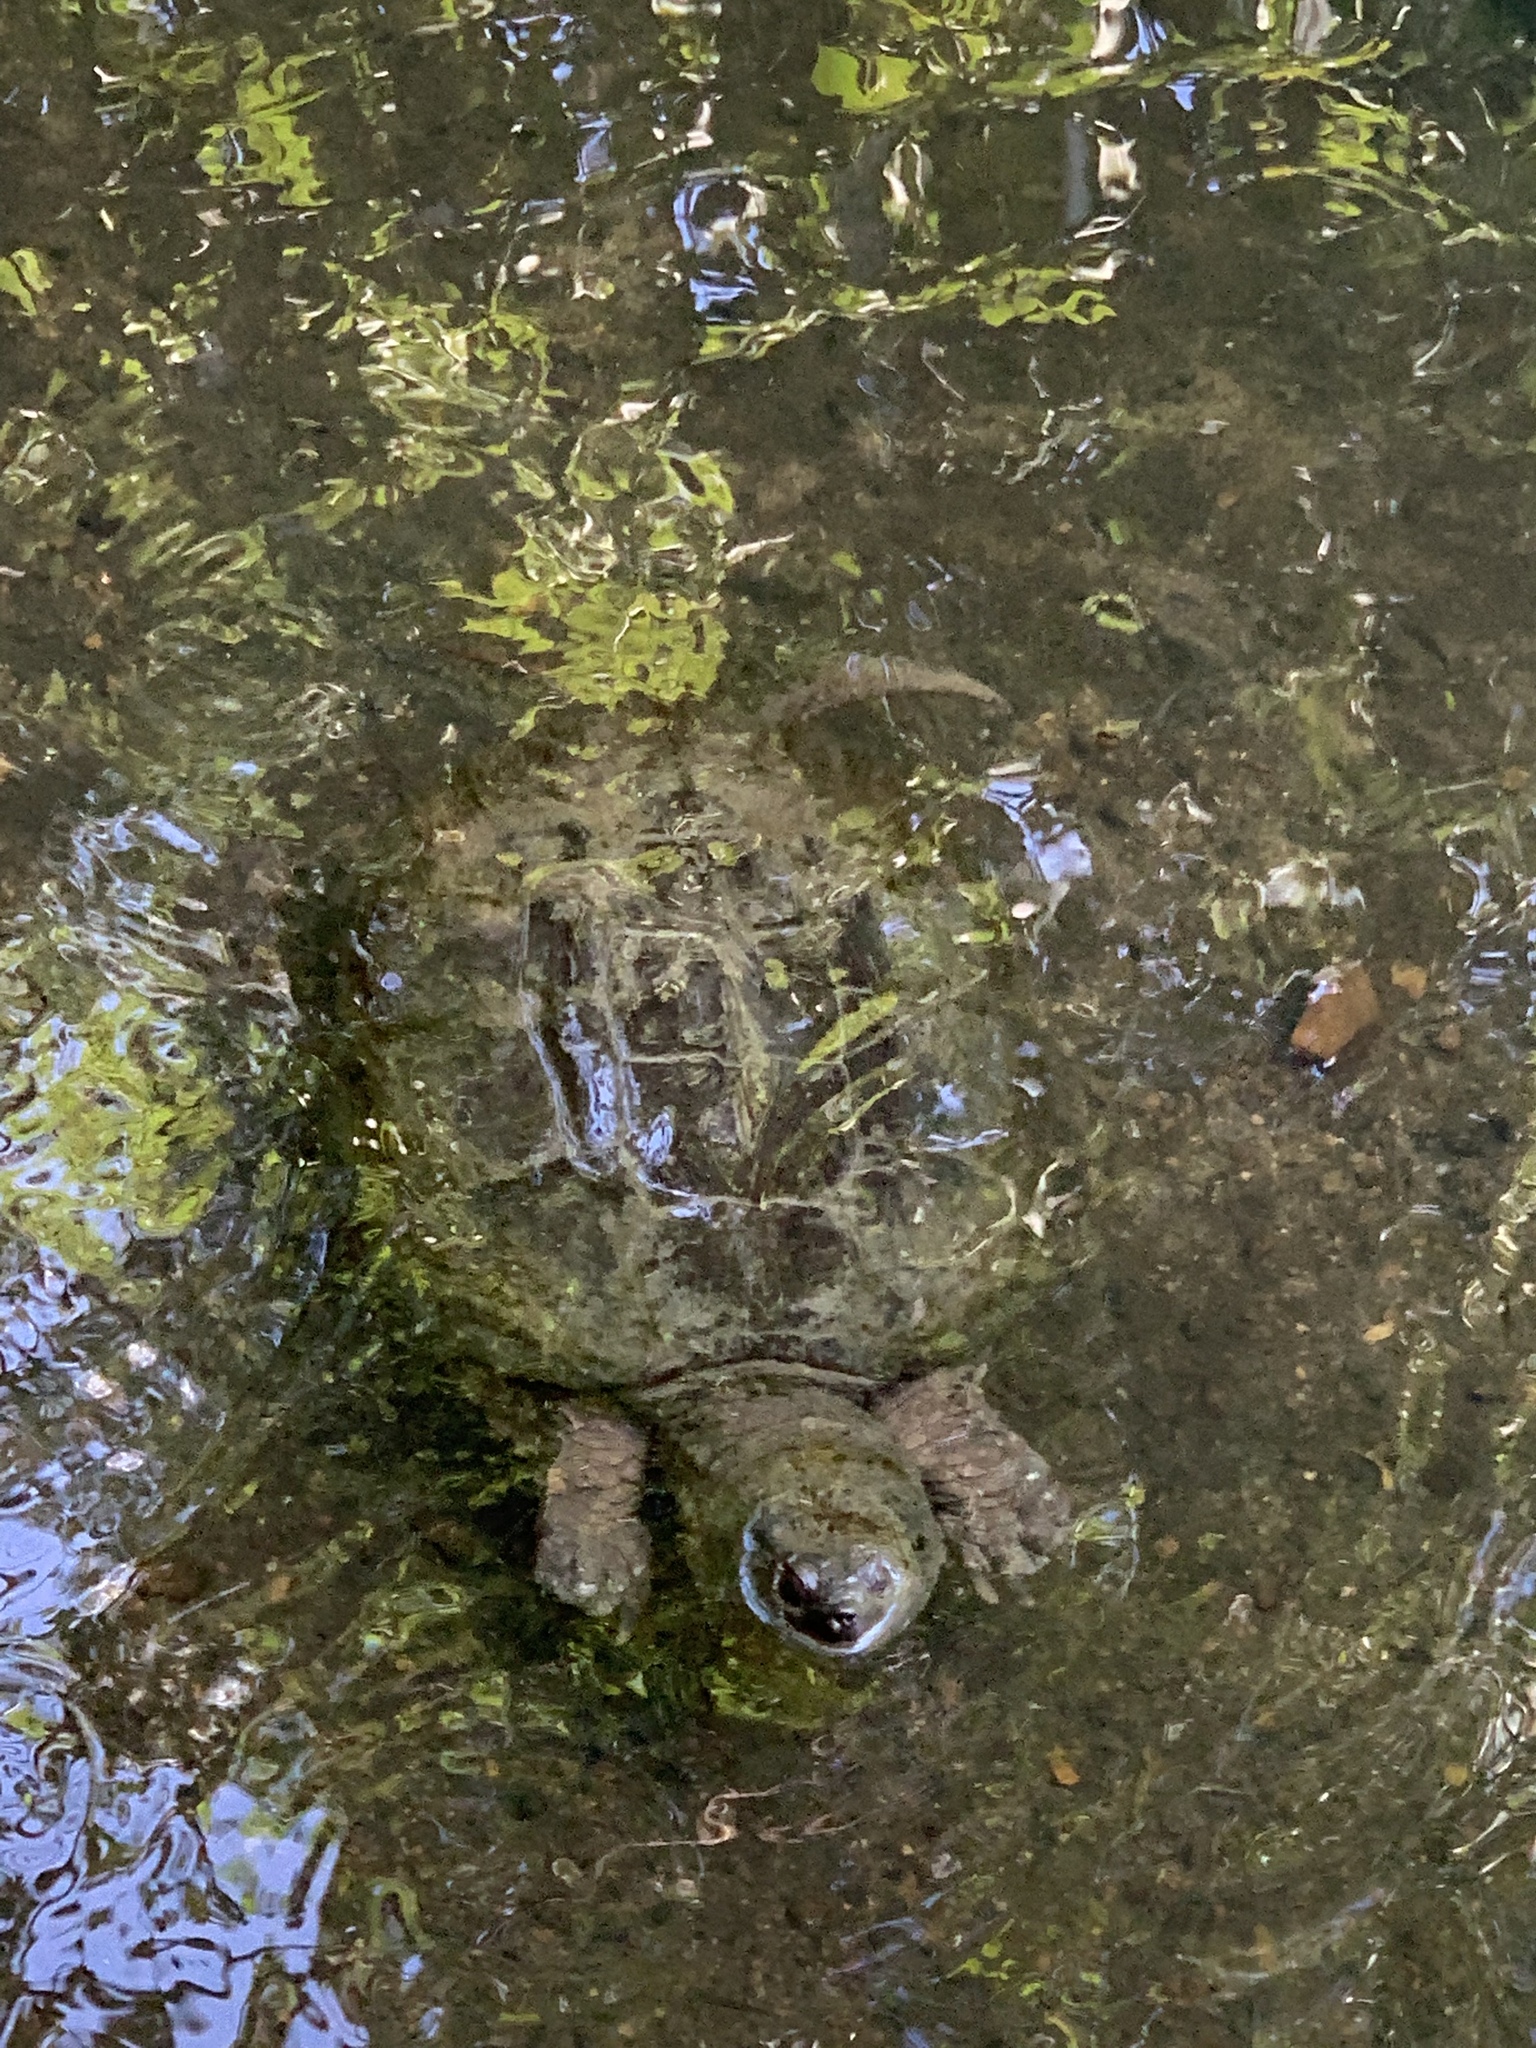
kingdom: Animalia
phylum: Chordata
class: Testudines
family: Chelydridae
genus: Chelydra
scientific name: Chelydra serpentina
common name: Common snapping turtle
